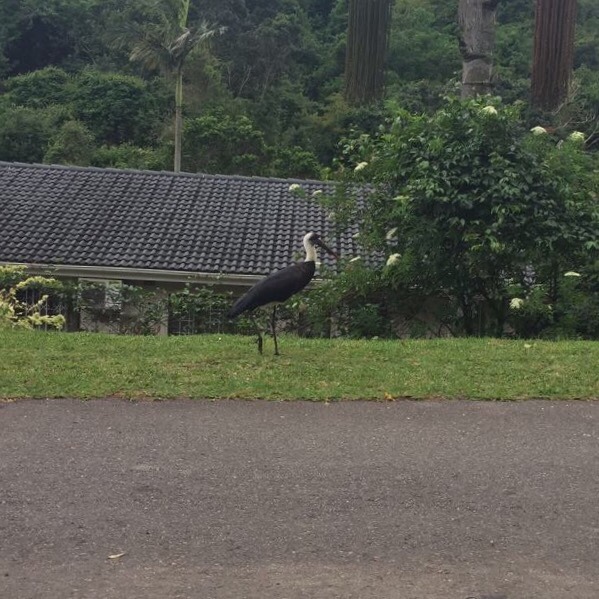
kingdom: Animalia
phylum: Chordata
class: Aves
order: Ciconiiformes
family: Ciconiidae
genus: Ciconia
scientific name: Ciconia microscelis
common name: African woollyneck
